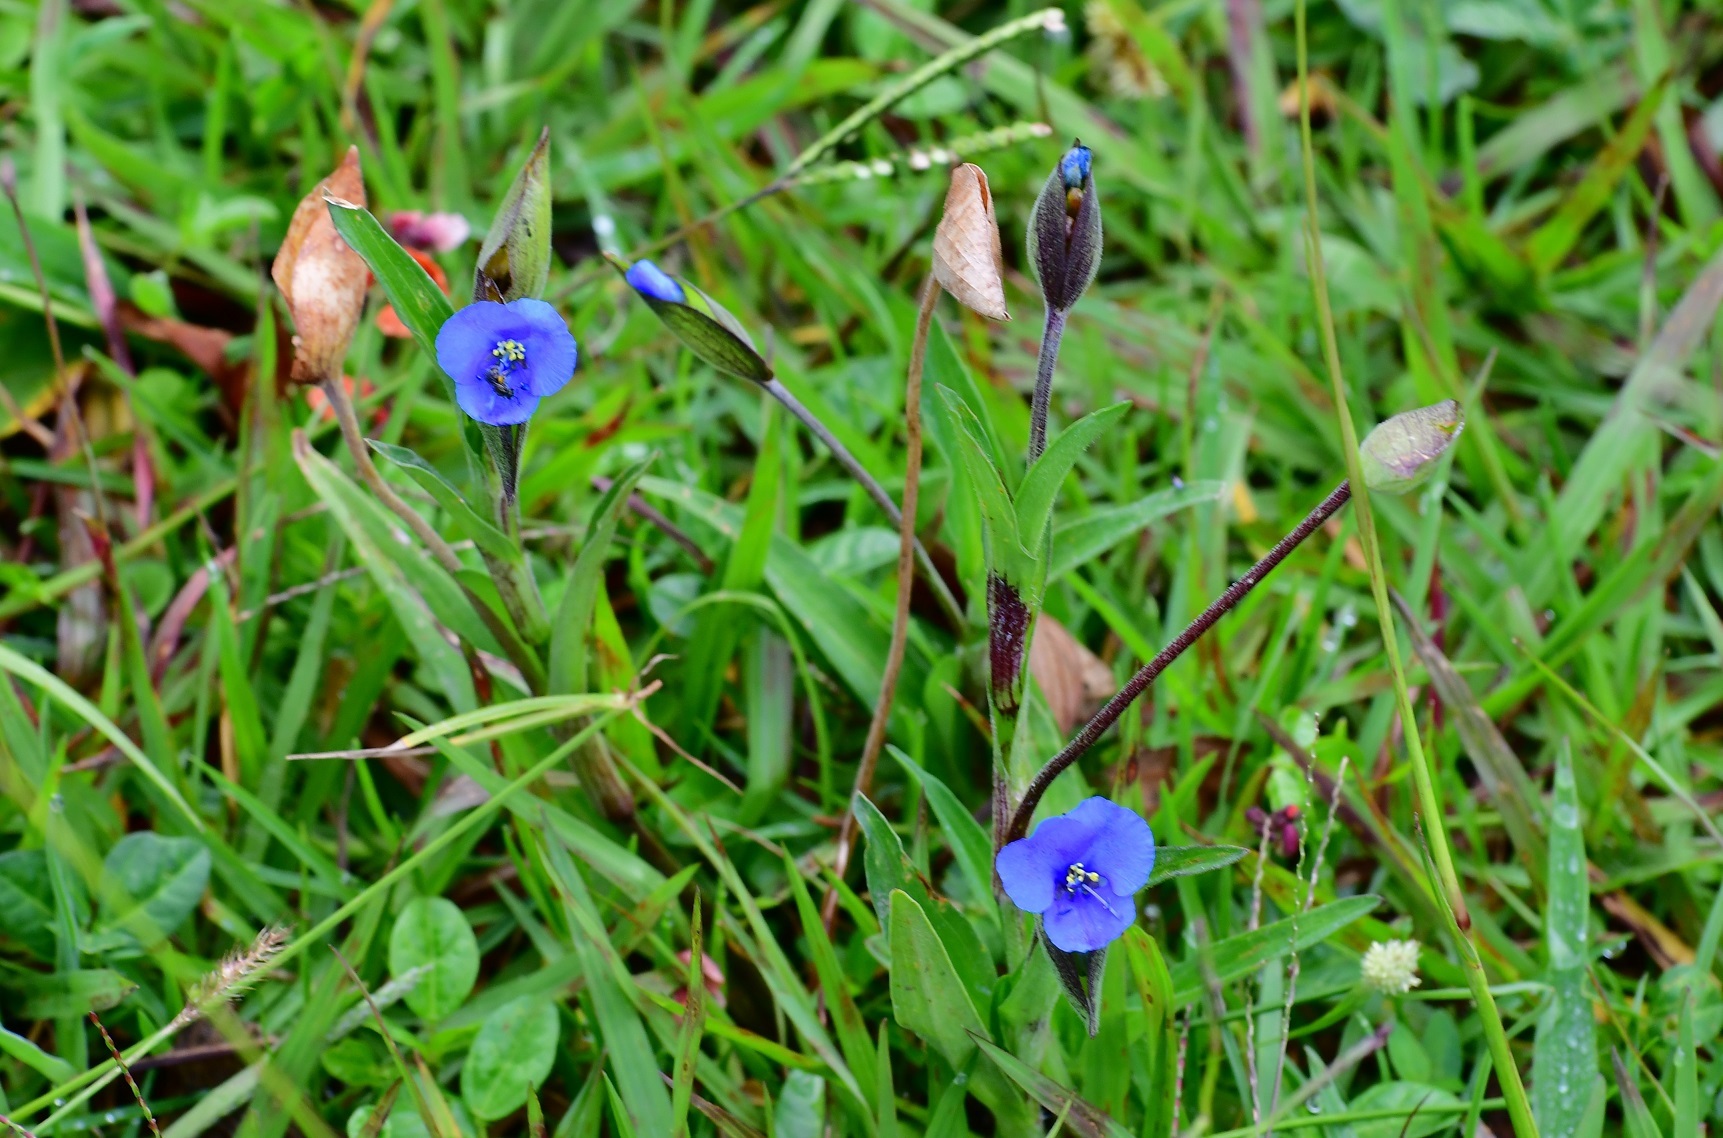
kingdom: Plantae
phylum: Tracheophyta
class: Liliopsida
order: Commelinales
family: Commelinaceae
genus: Commelina
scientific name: Commelina tuberosa
